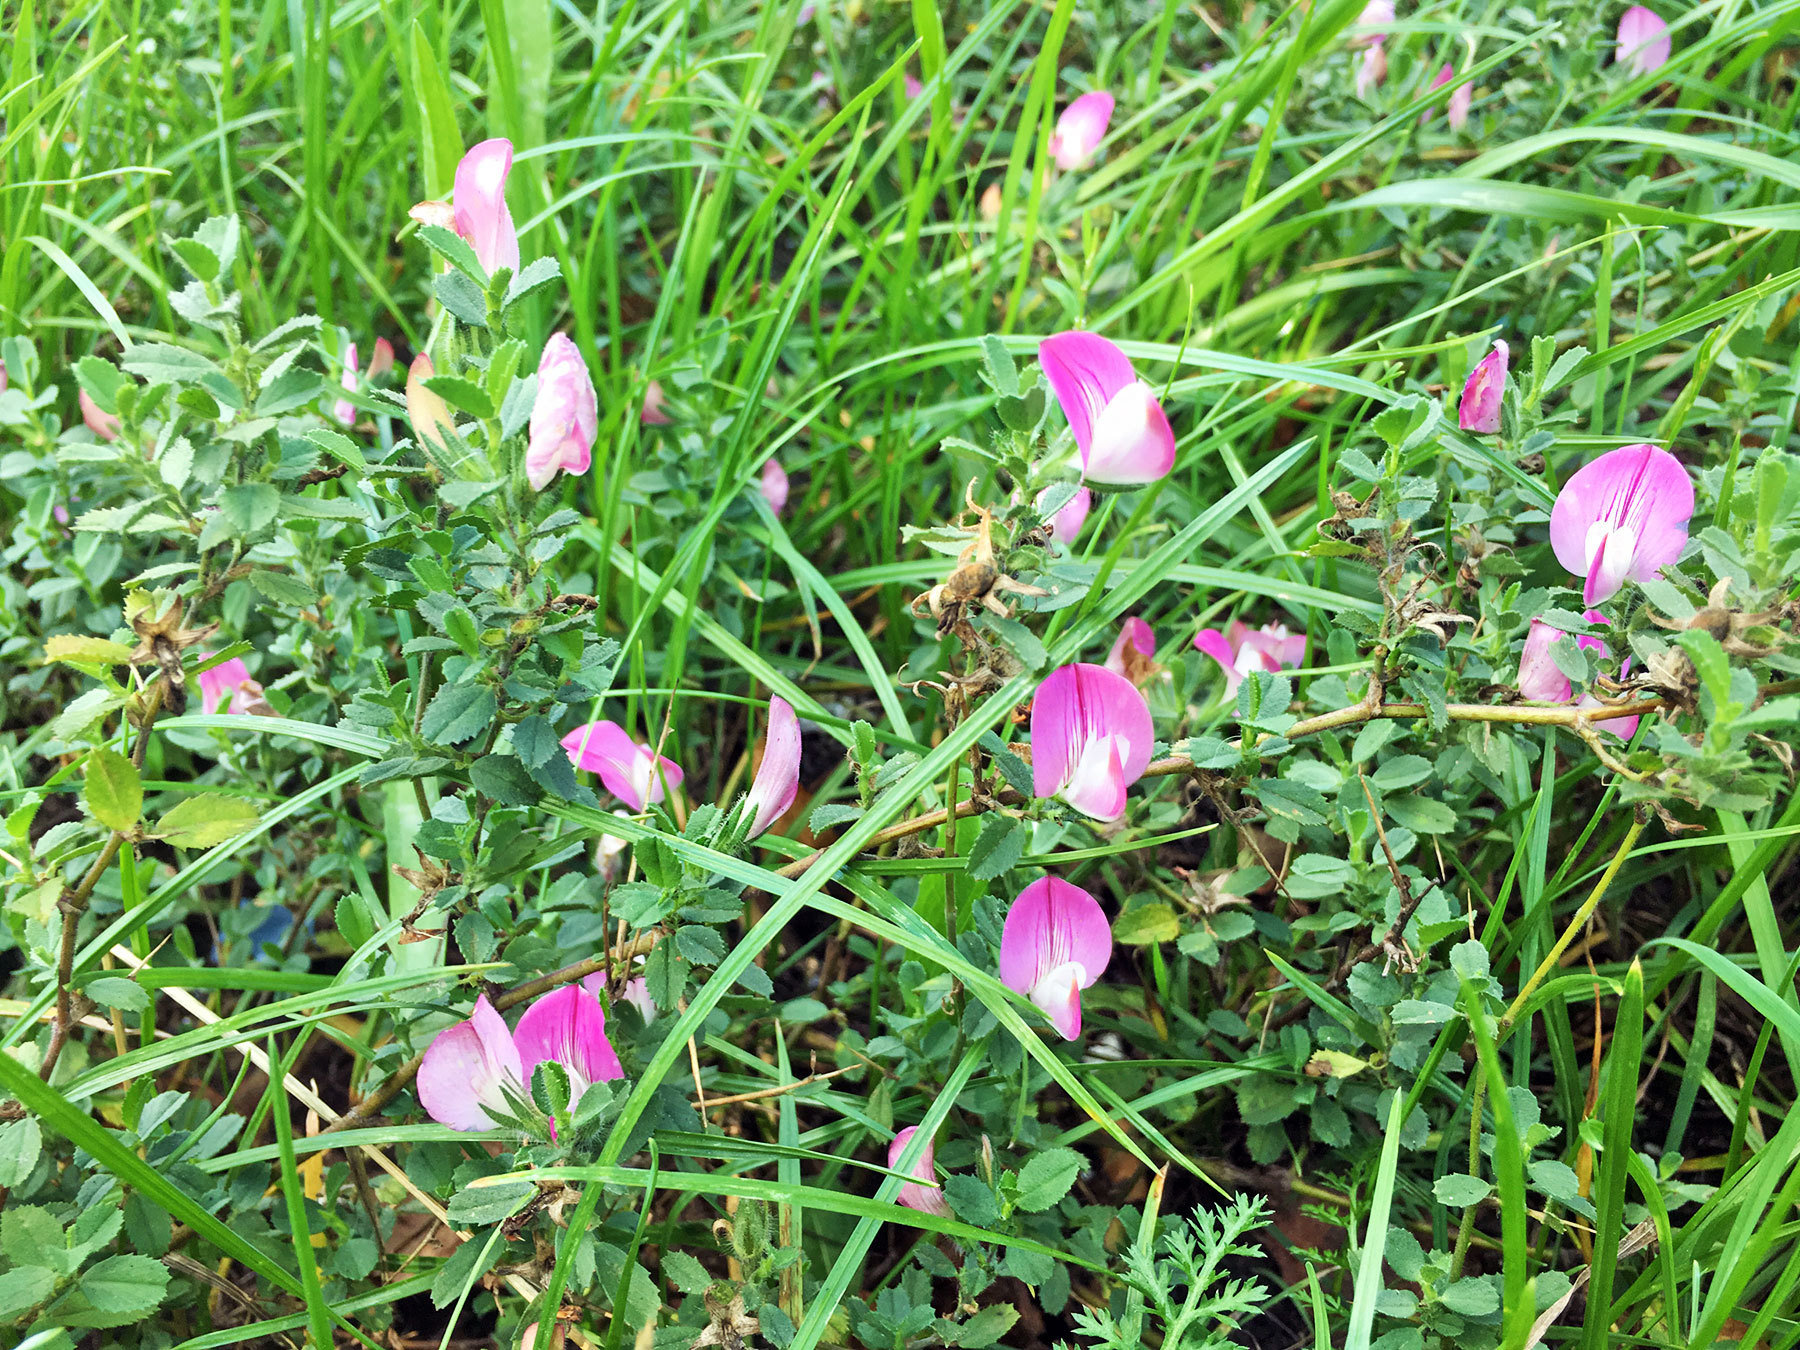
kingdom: Plantae
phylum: Tracheophyta
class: Magnoliopsida
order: Fabales
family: Fabaceae
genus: Ononis
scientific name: Ononis spinosa
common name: Spiny restharrow
